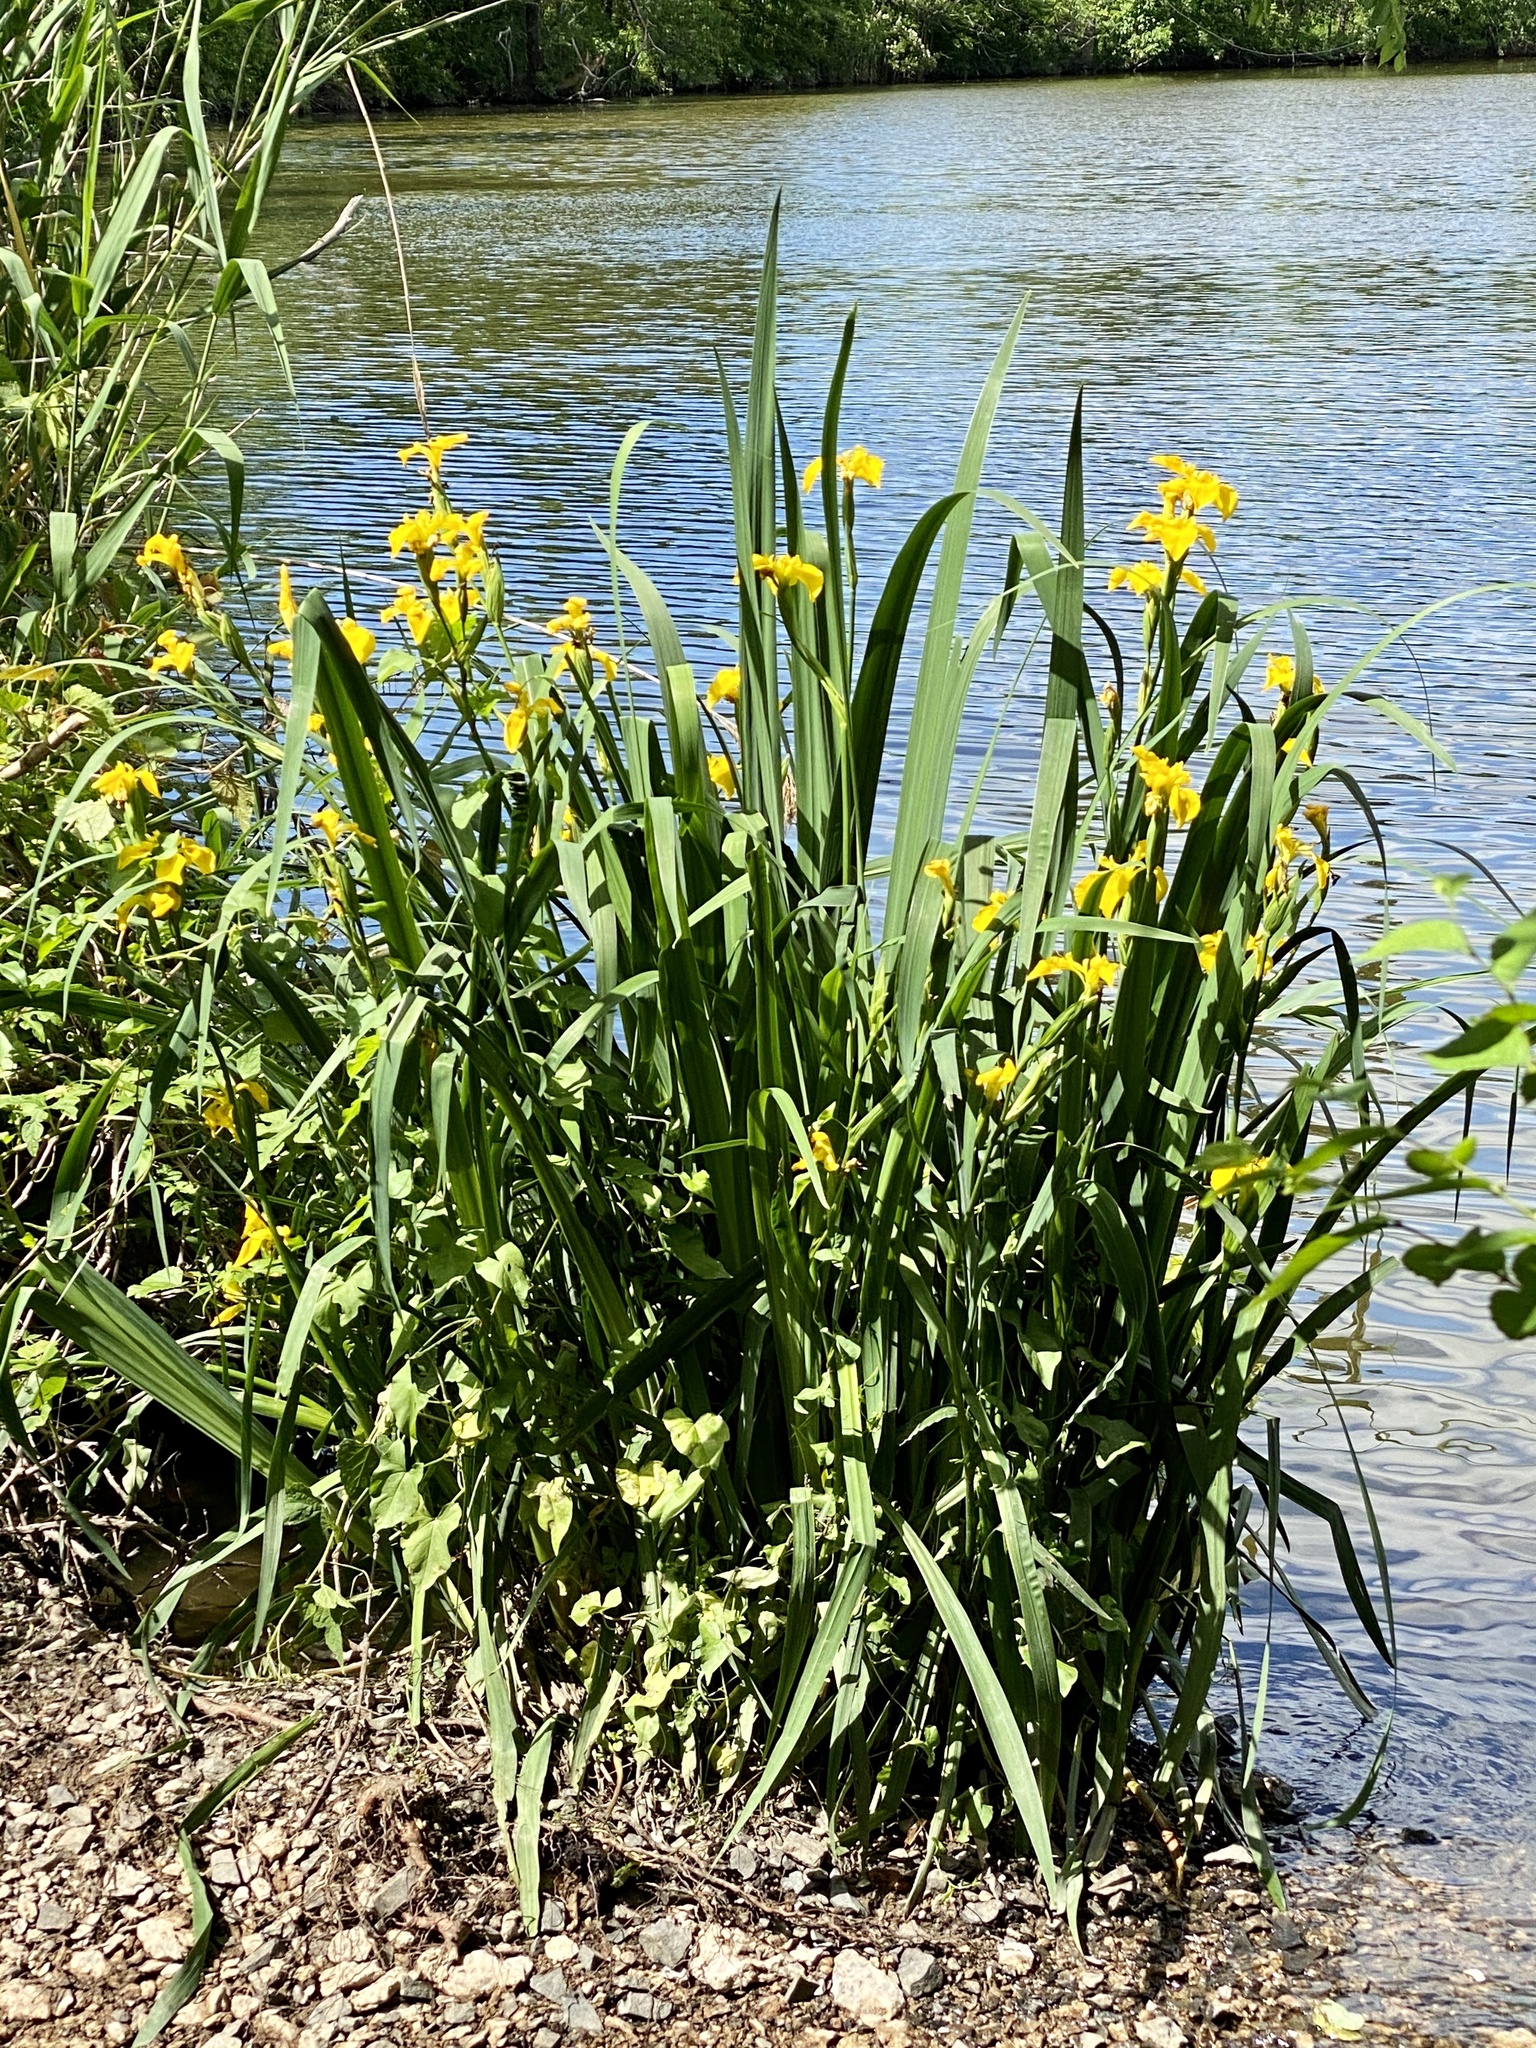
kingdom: Plantae
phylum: Tracheophyta
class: Liliopsida
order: Asparagales
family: Iridaceae
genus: Iris
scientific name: Iris pseudacorus
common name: Yellow flag
